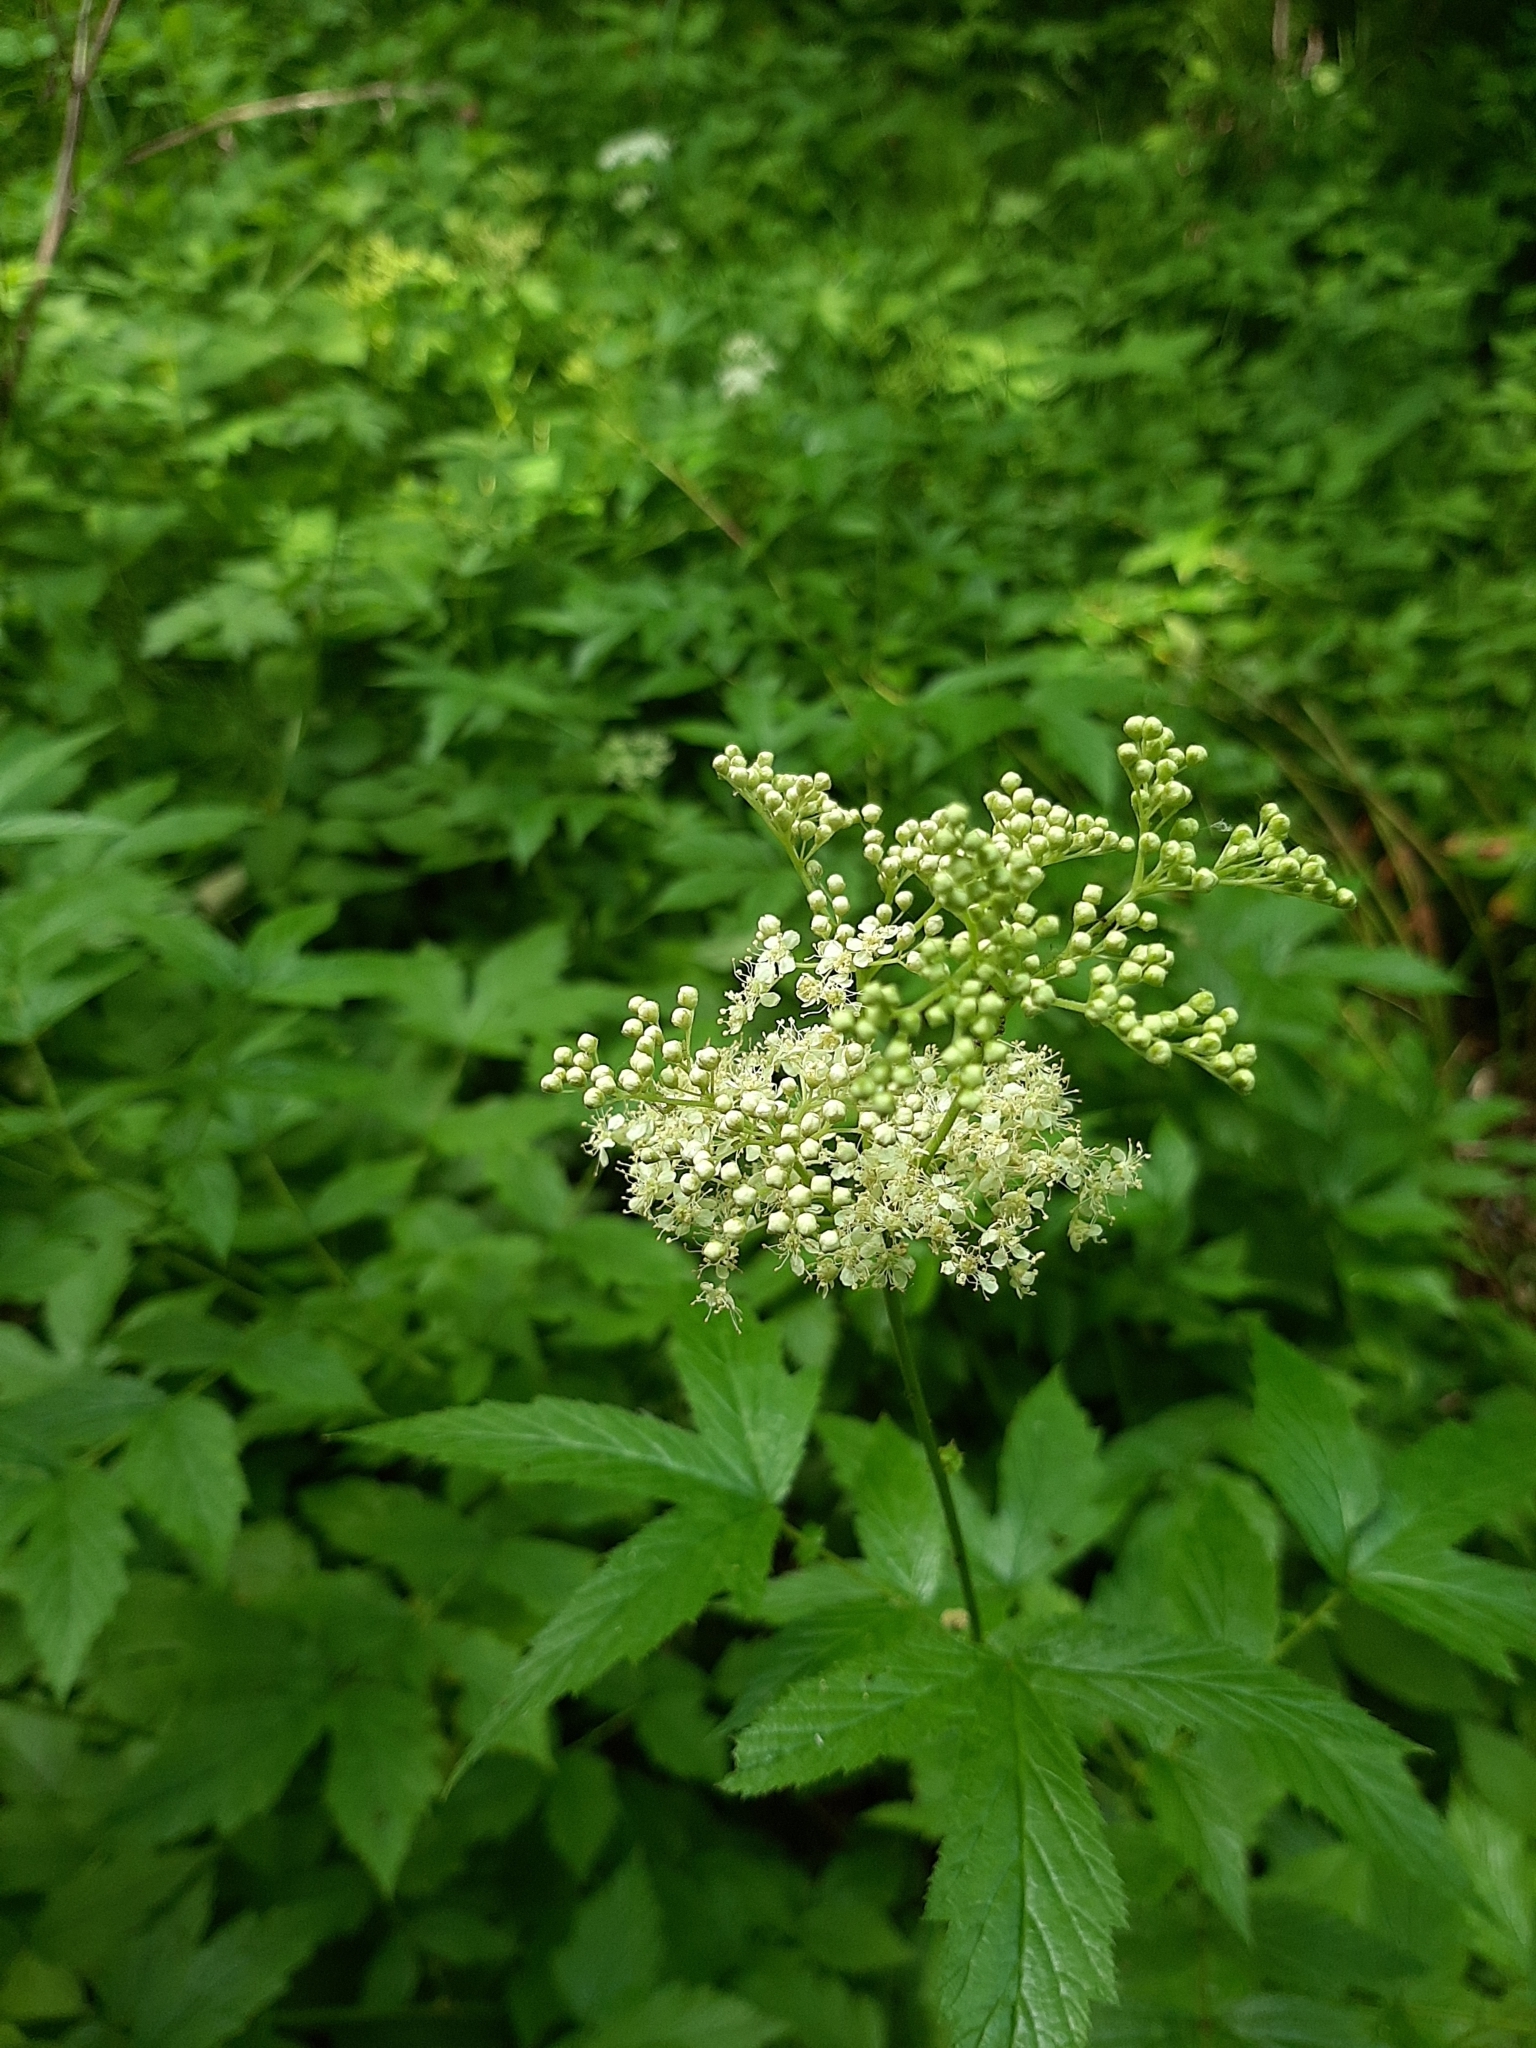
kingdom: Plantae
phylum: Tracheophyta
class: Magnoliopsida
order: Rosales
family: Rosaceae
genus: Filipendula
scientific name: Filipendula ulmaria
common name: Meadowsweet
